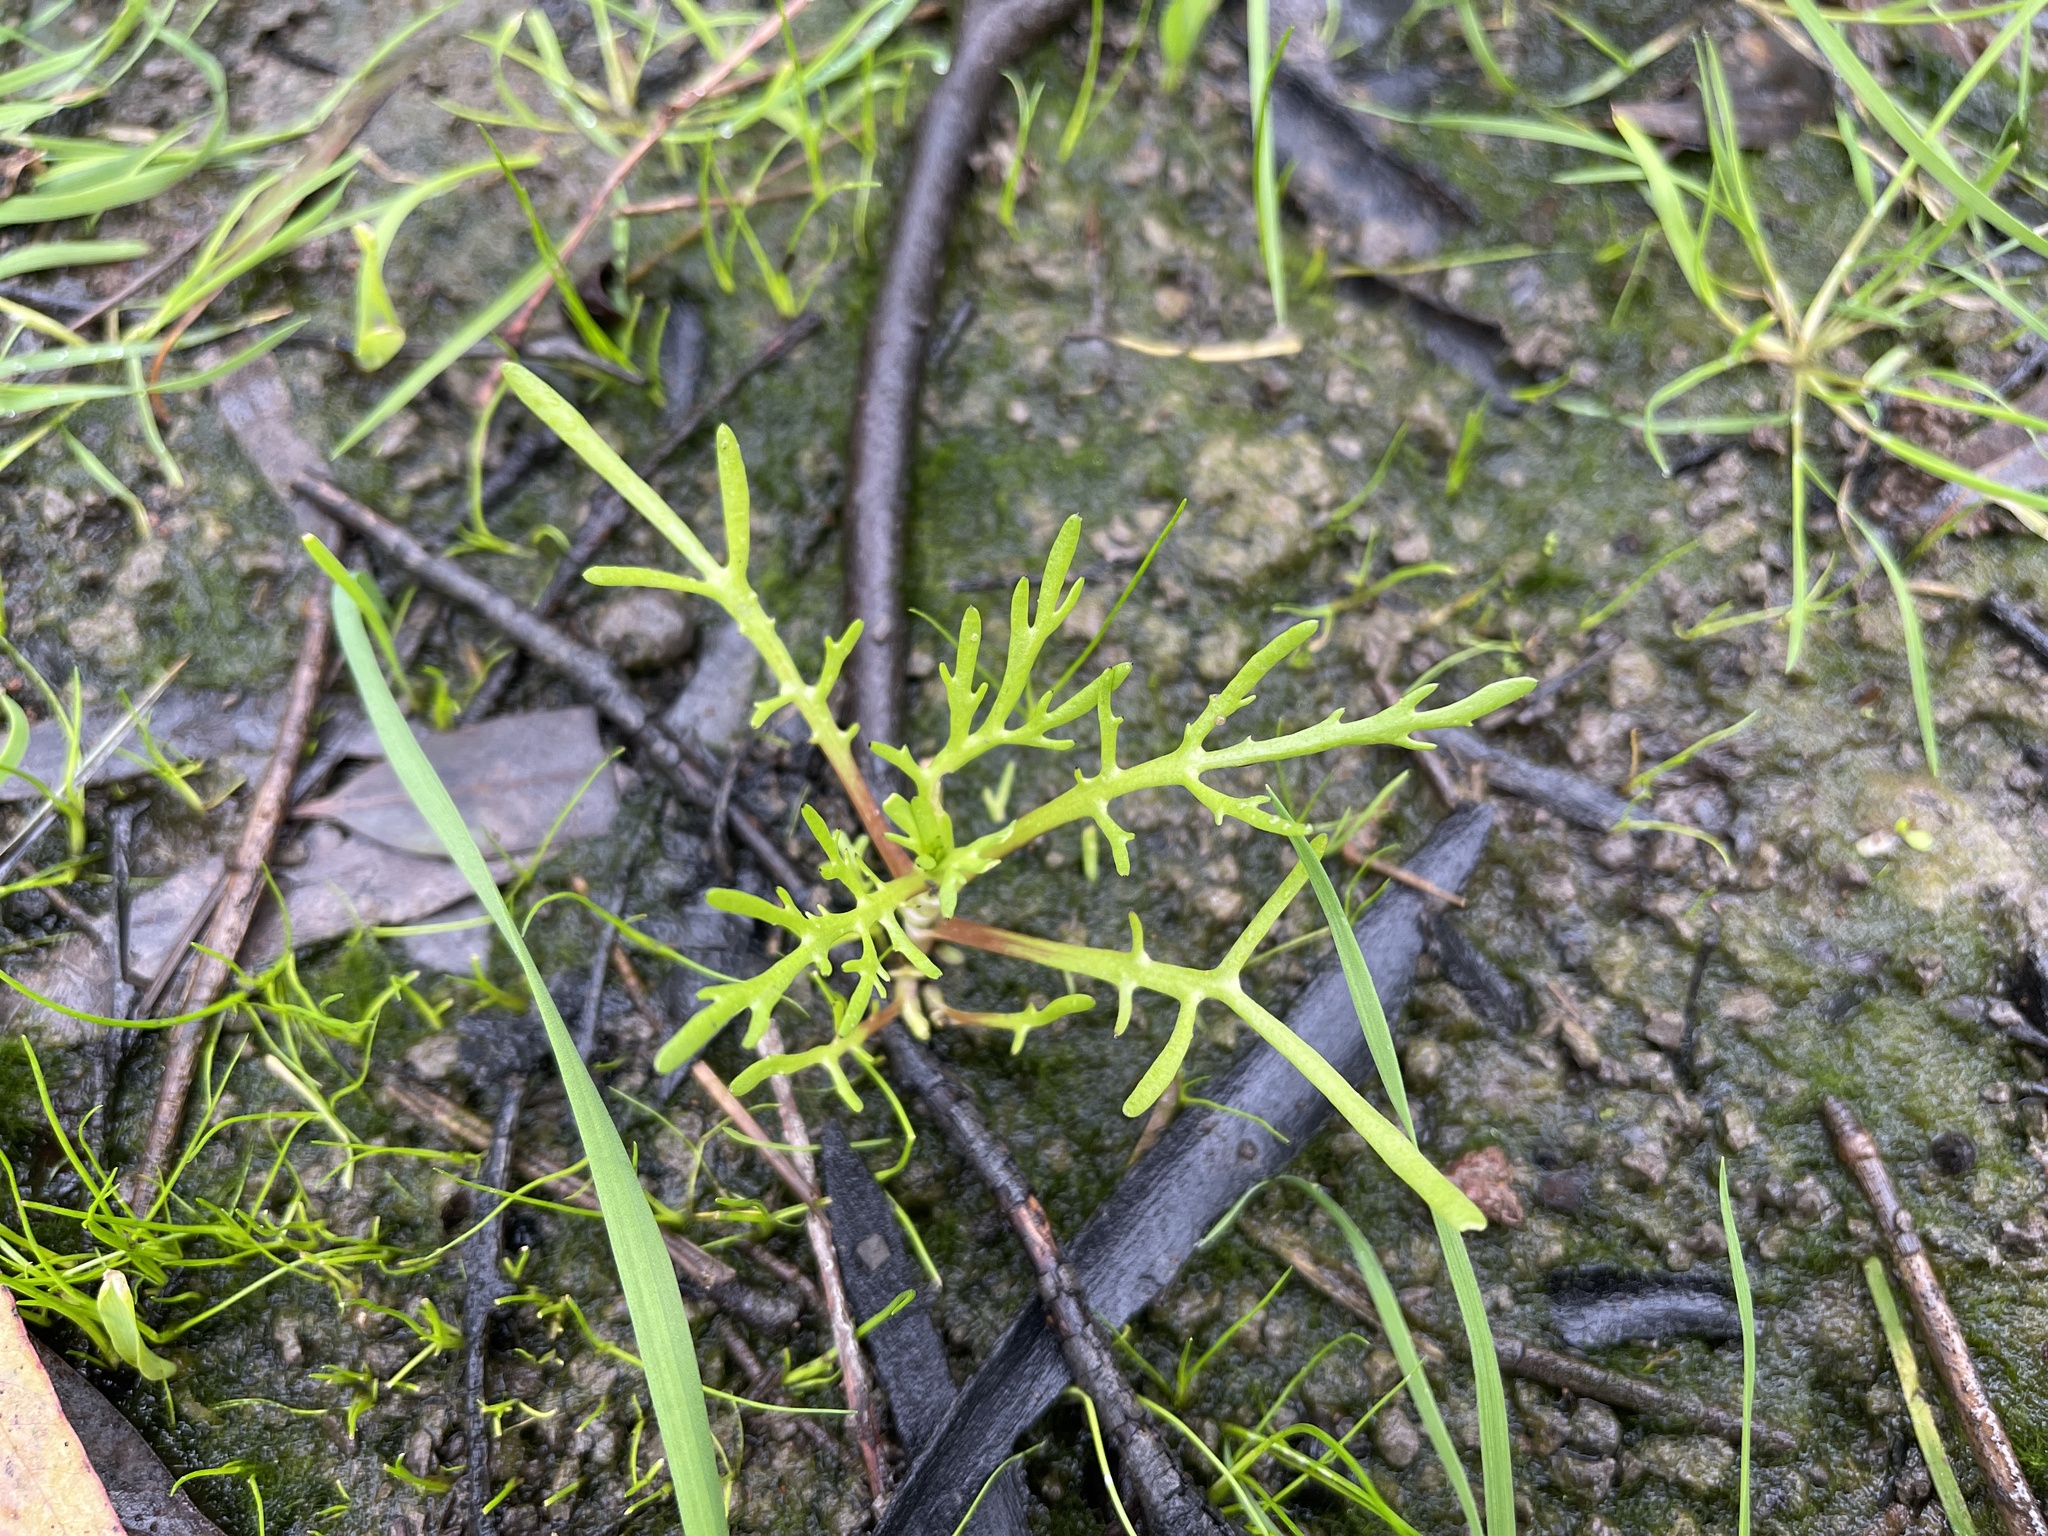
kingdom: Plantae
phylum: Tracheophyta
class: Magnoliopsida
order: Asterales
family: Asteraceae
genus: Cotula
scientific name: Cotula coronopifolia
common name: Buttonweed
